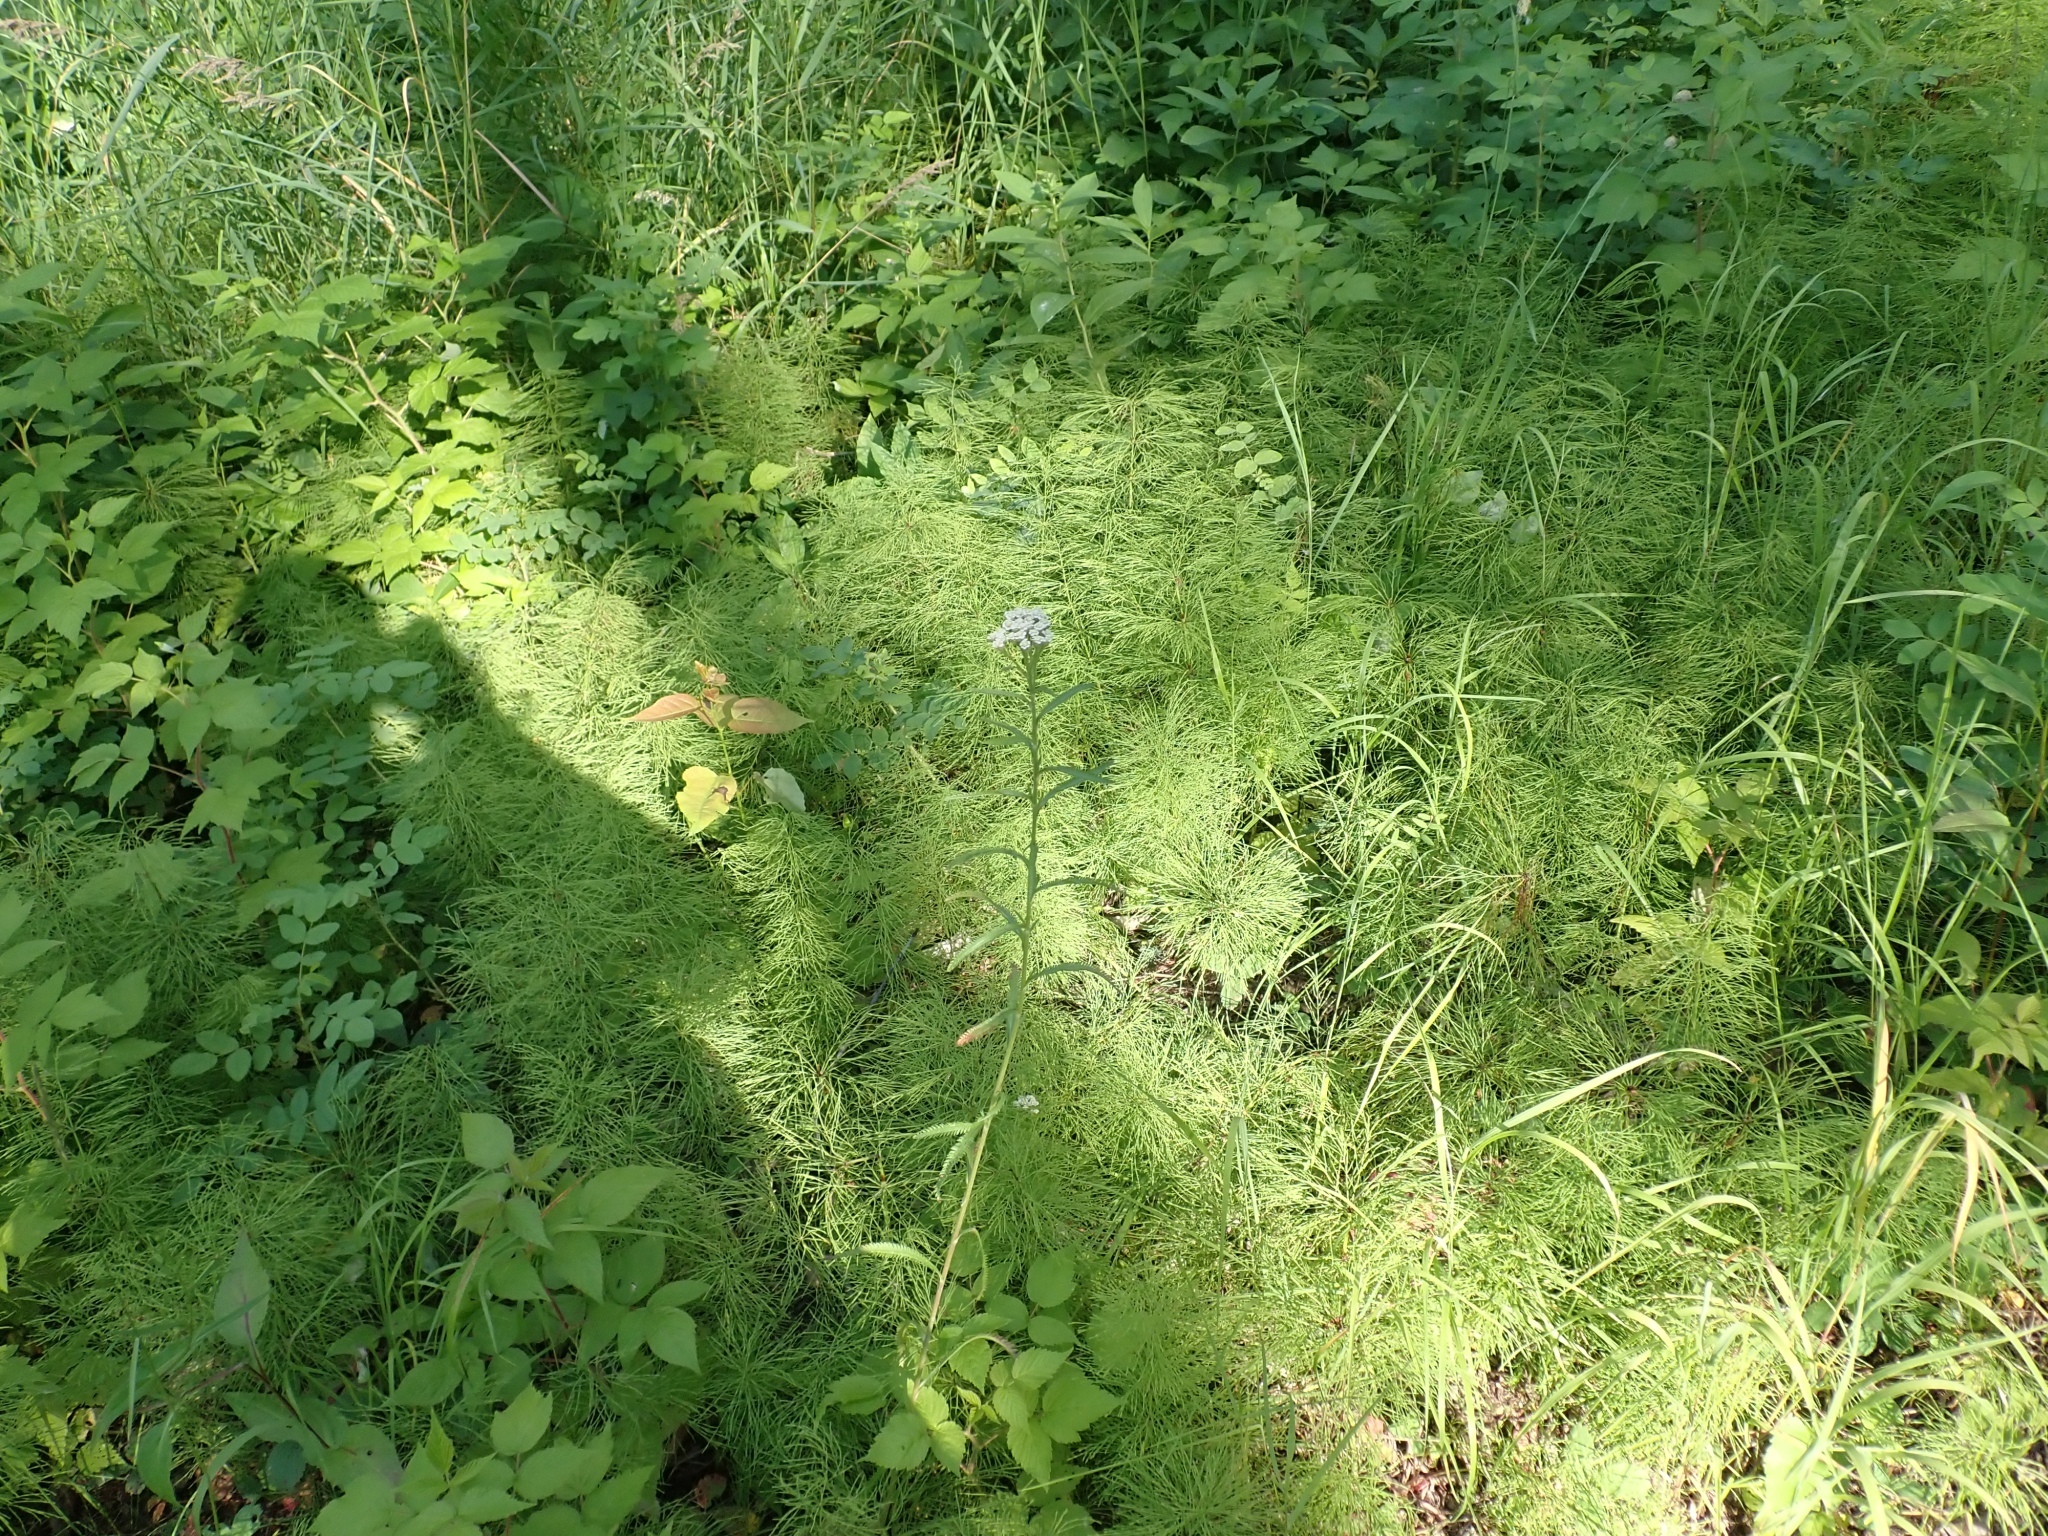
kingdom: Plantae
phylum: Tracheophyta
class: Magnoliopsida
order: Asterales
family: Asteraceae
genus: Achillea
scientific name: Achillea alpina
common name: Siberian yarrow
